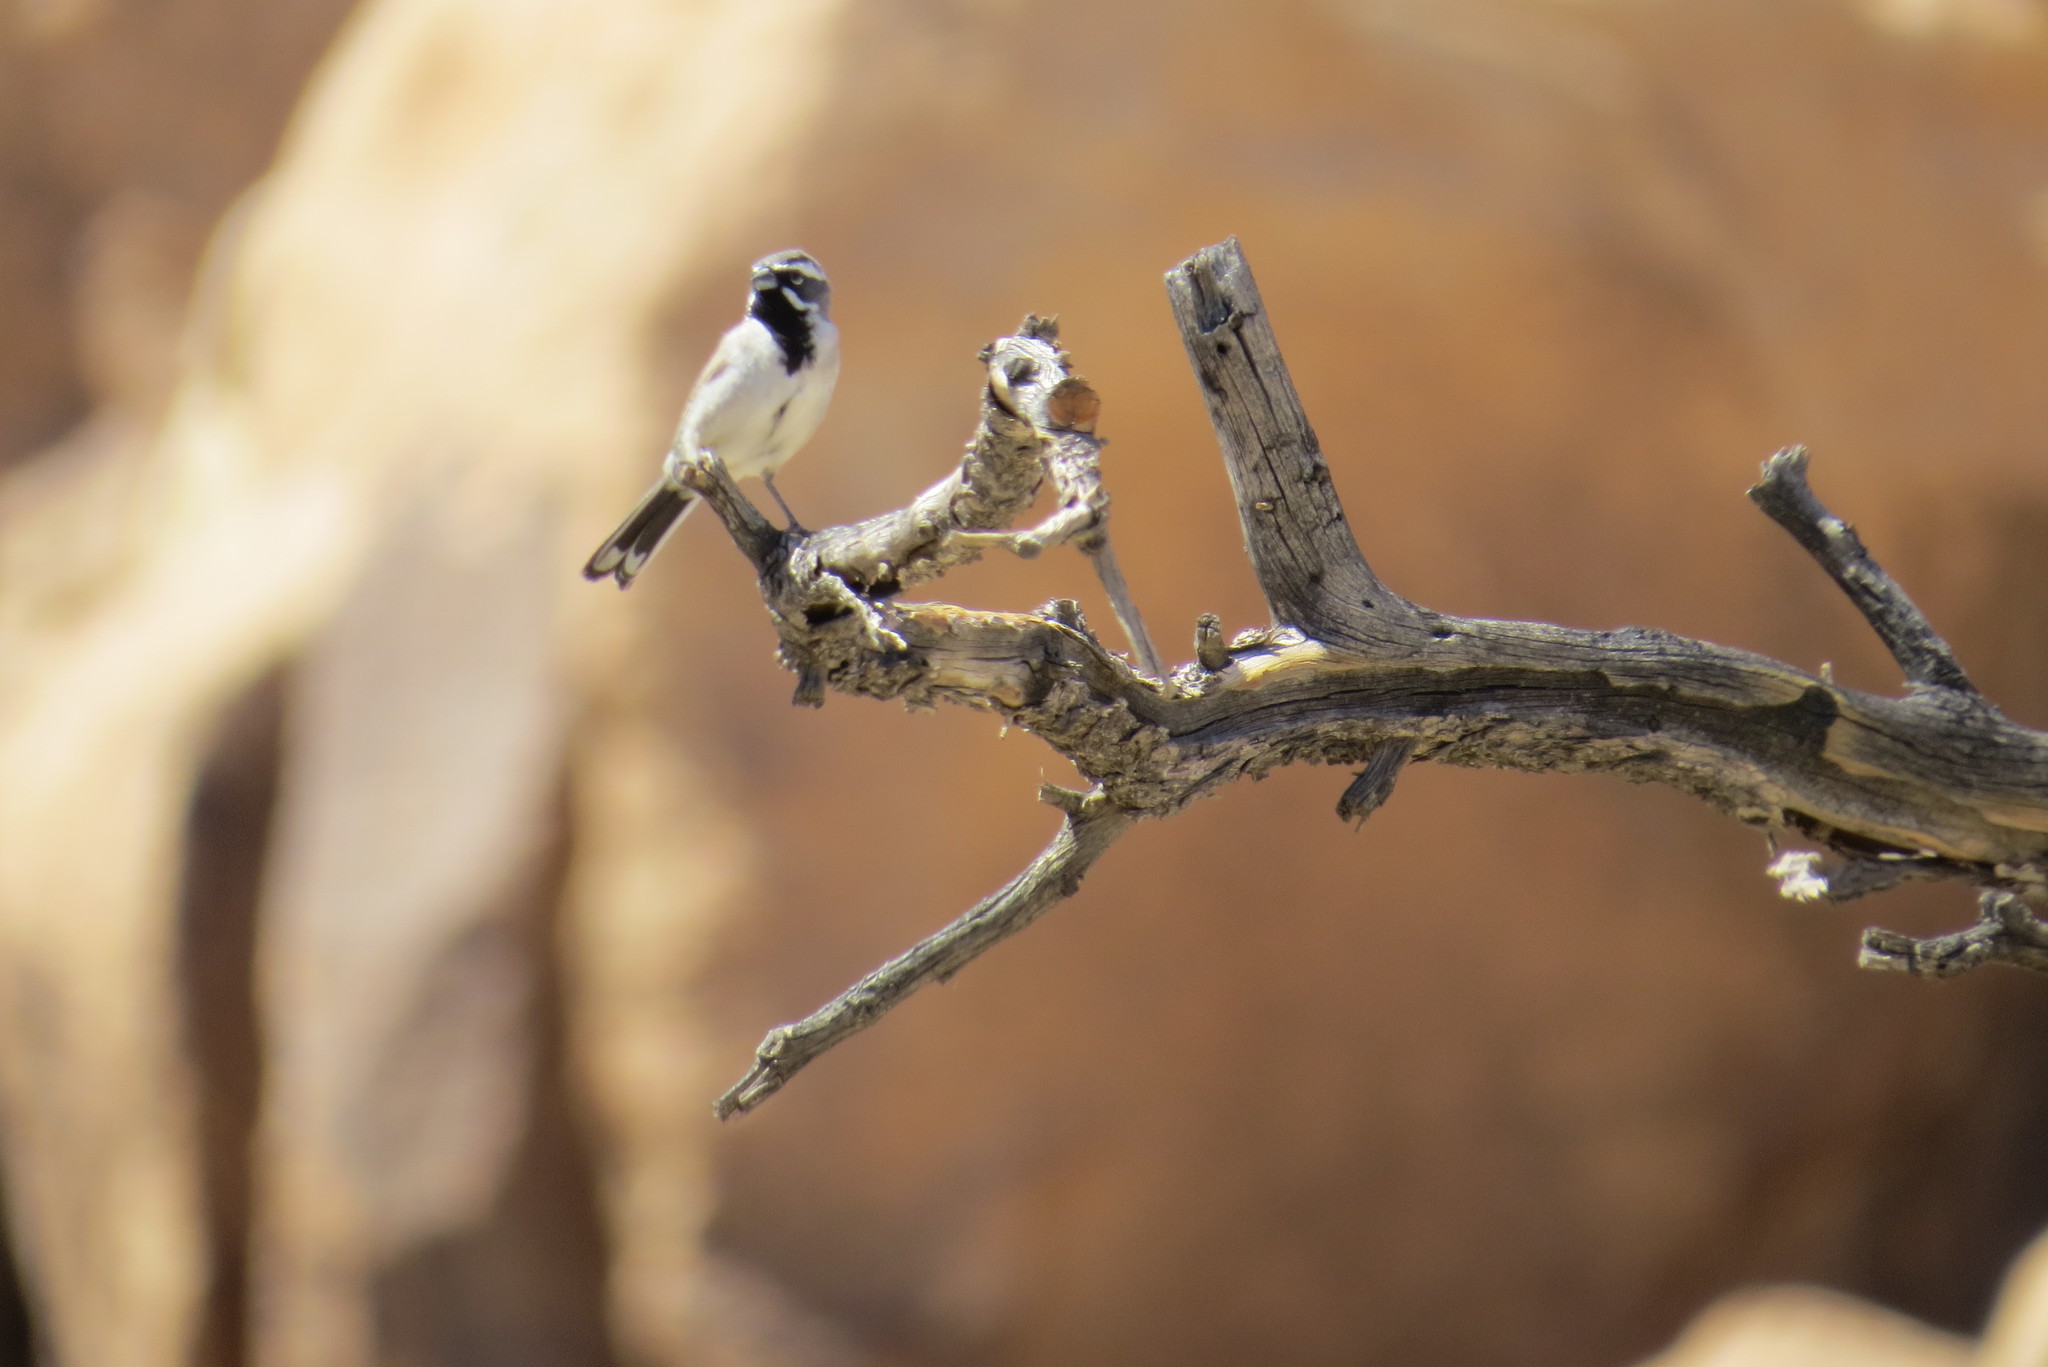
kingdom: Animalia
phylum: Chordata
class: Aves
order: Passeriformes
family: Passerellidae
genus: Amphispiza
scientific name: Amphispiza bilineata
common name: Black-throated sparrow
